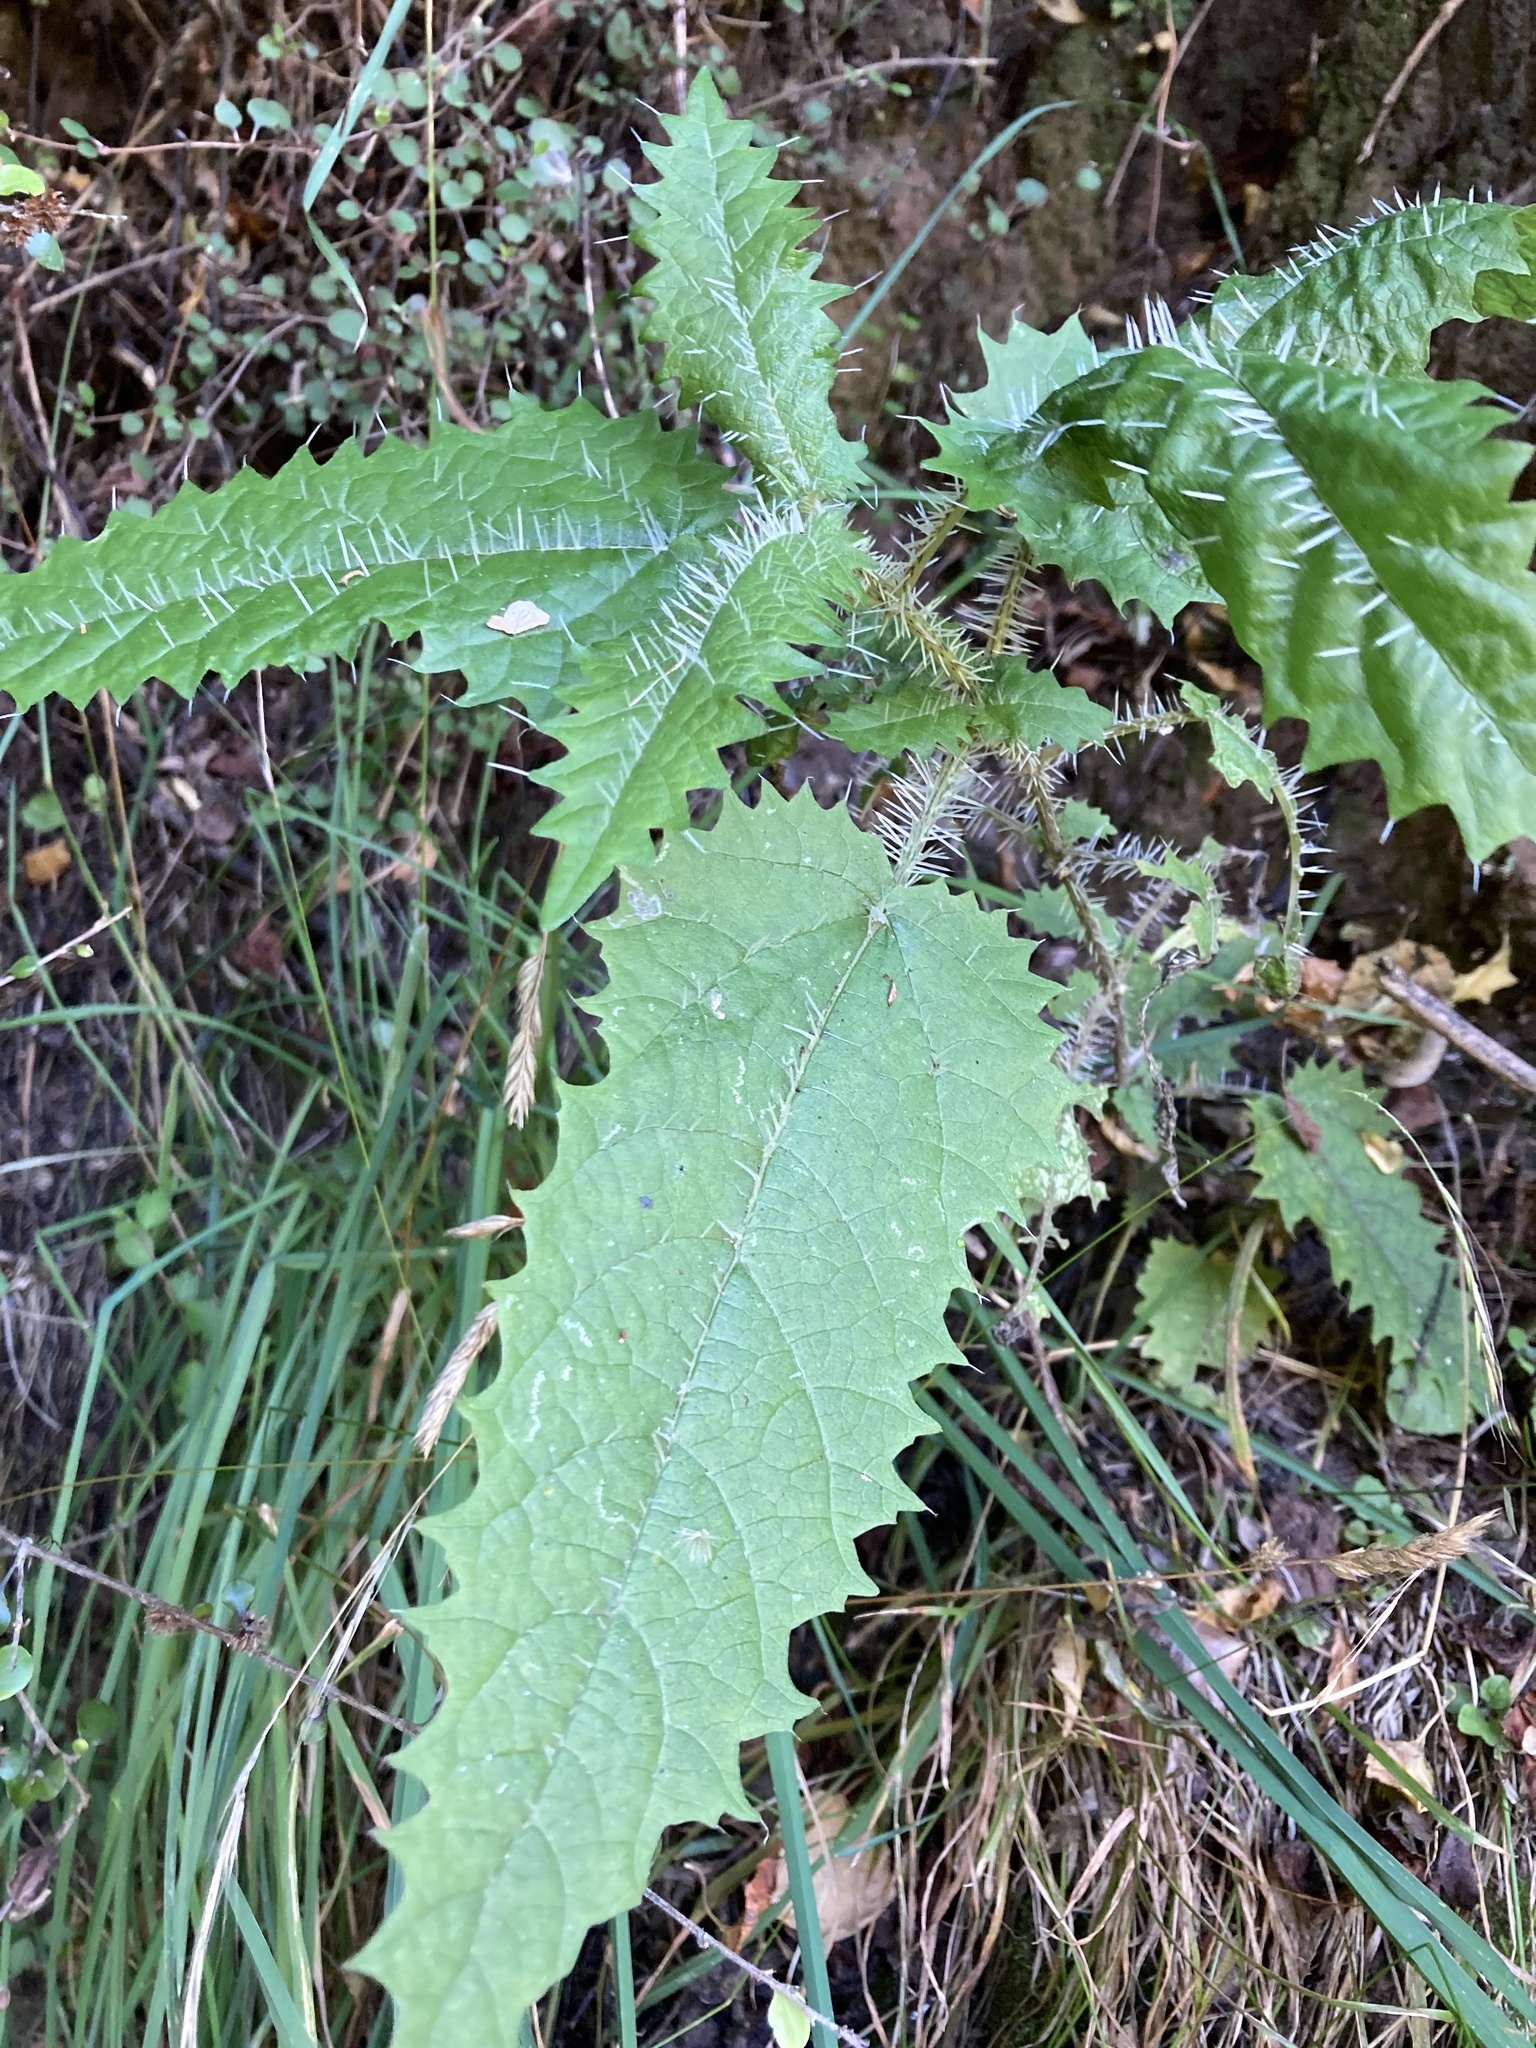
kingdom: Plantae
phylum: Tracheophyta
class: Magnoliopsida
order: Rosales
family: Urticaceae
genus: Urtica
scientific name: Urtica ferox
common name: Tree nettle
